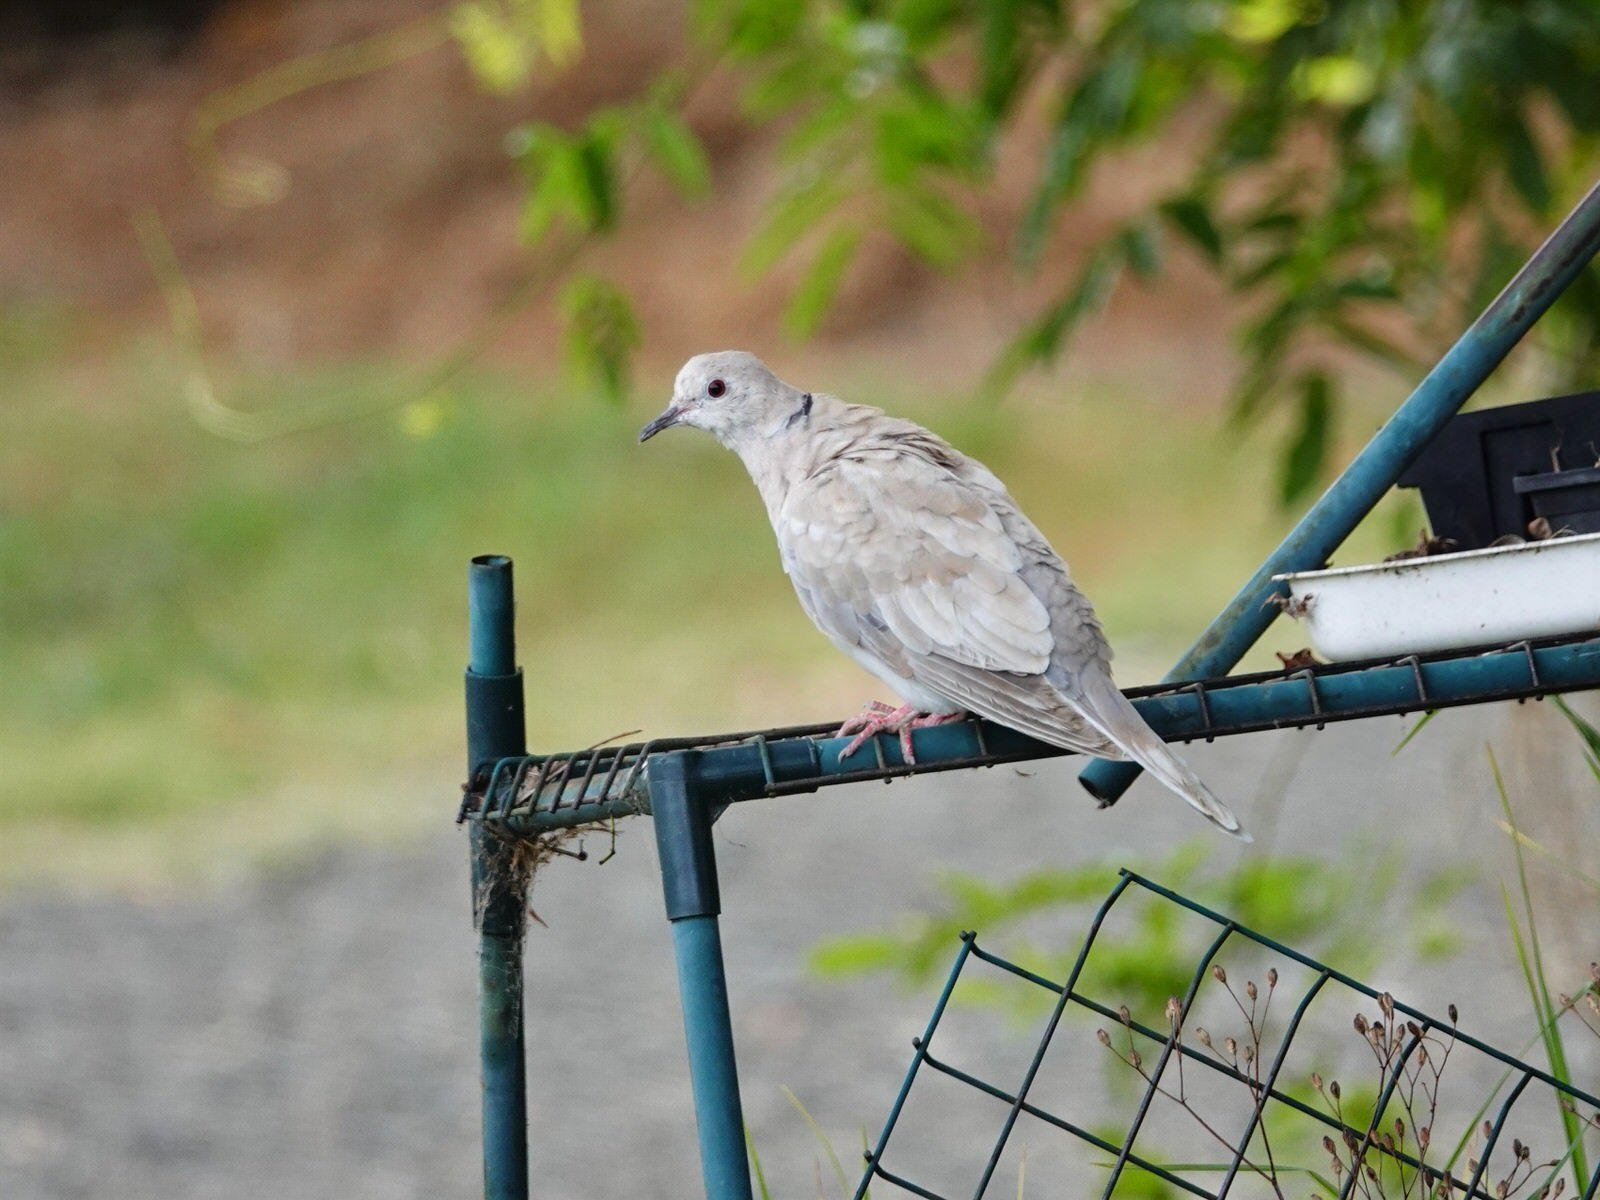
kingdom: Animalia
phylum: Chordata
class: Aves
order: Columbiformes
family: Columbidae
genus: Streptopelia
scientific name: Streptopelia roseogrisea
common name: African collared dove
